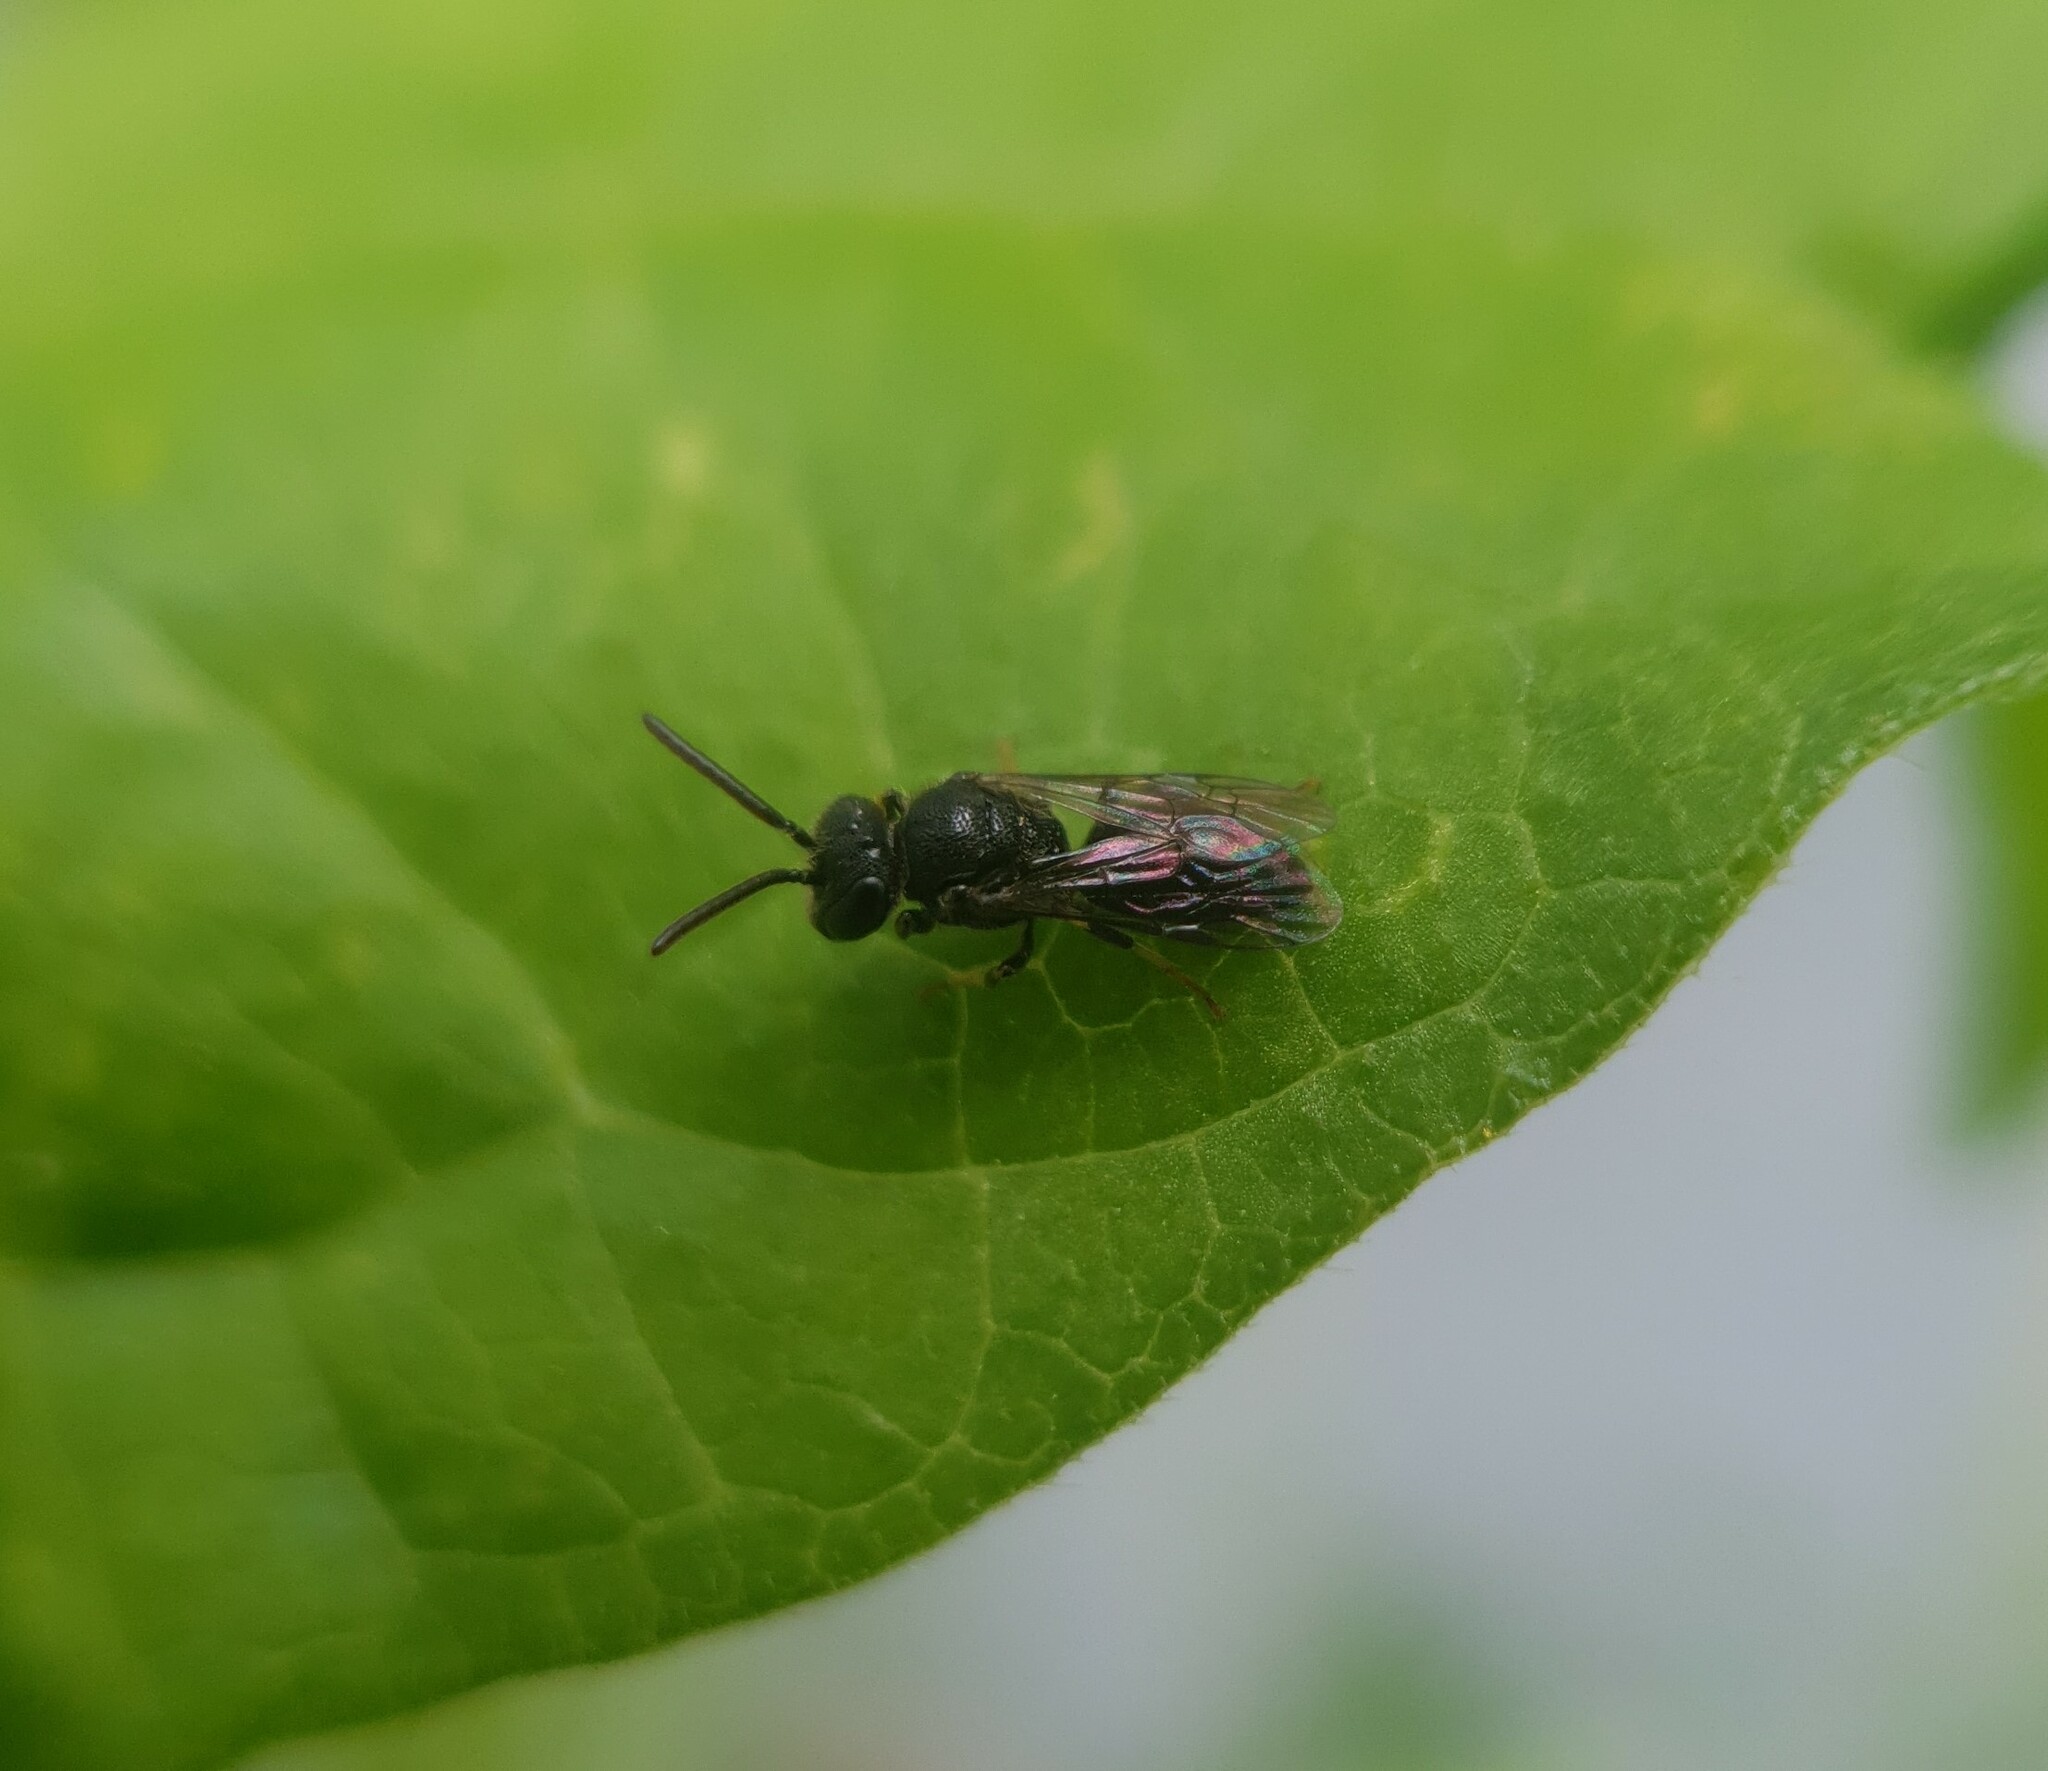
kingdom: Animalia
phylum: Arthropoda
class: Insecta
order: Hymenoptera
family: Colletidae
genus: Hylaeus
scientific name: Hylaeus punctatus
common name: Punctate masked bee
